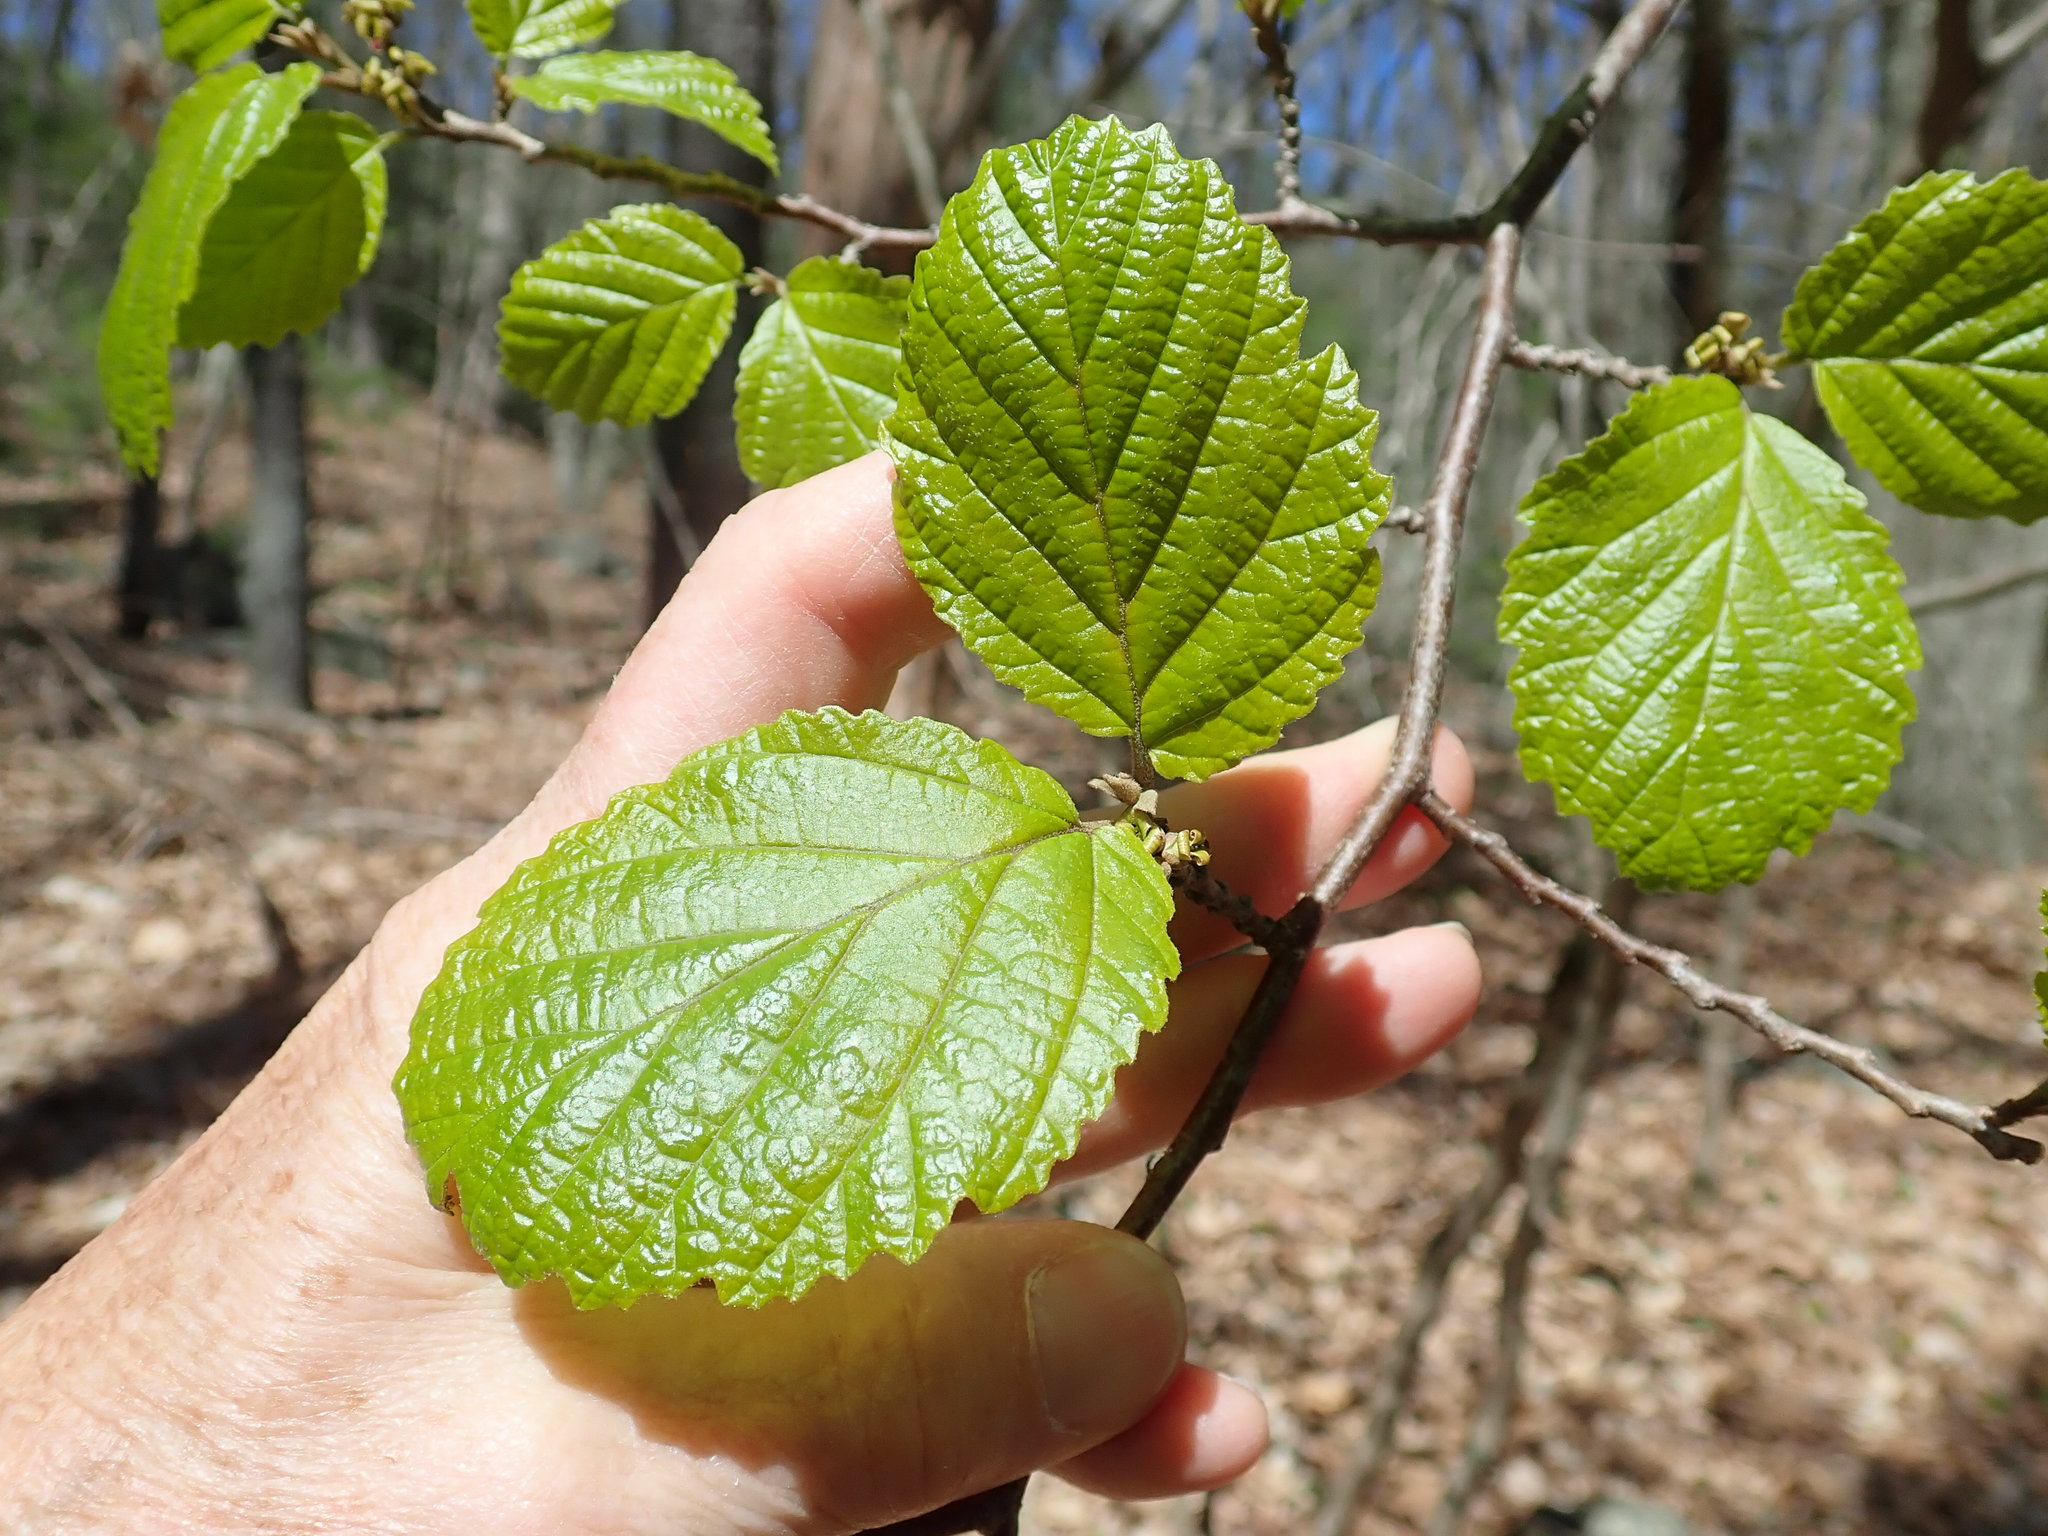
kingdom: Plantae
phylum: Tracheophyta
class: Magnoliopsida
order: Saxifragales
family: Hamamelidaceae
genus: Hamamelis
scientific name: Hamamelis virginiana
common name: Witch-hazel
